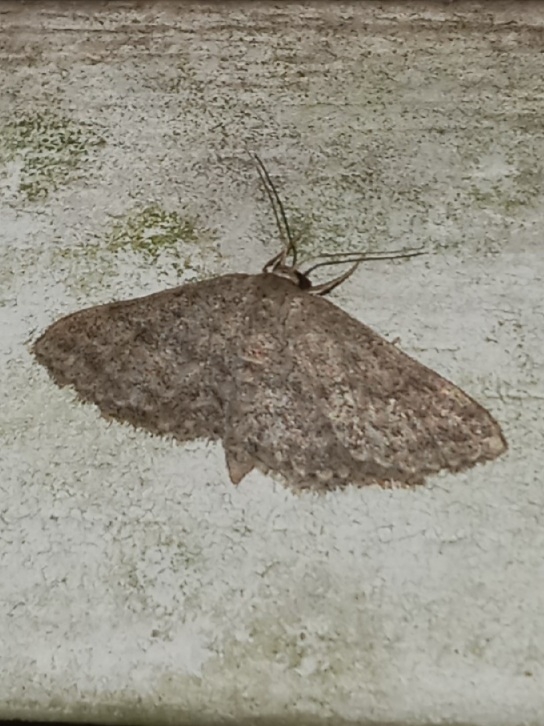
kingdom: Animalia
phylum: Arthropoda
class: Insecta
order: Lepidoptera
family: Geometridae
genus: Lobocleta
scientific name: Lobocleta ossularia
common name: Drab brown wave
